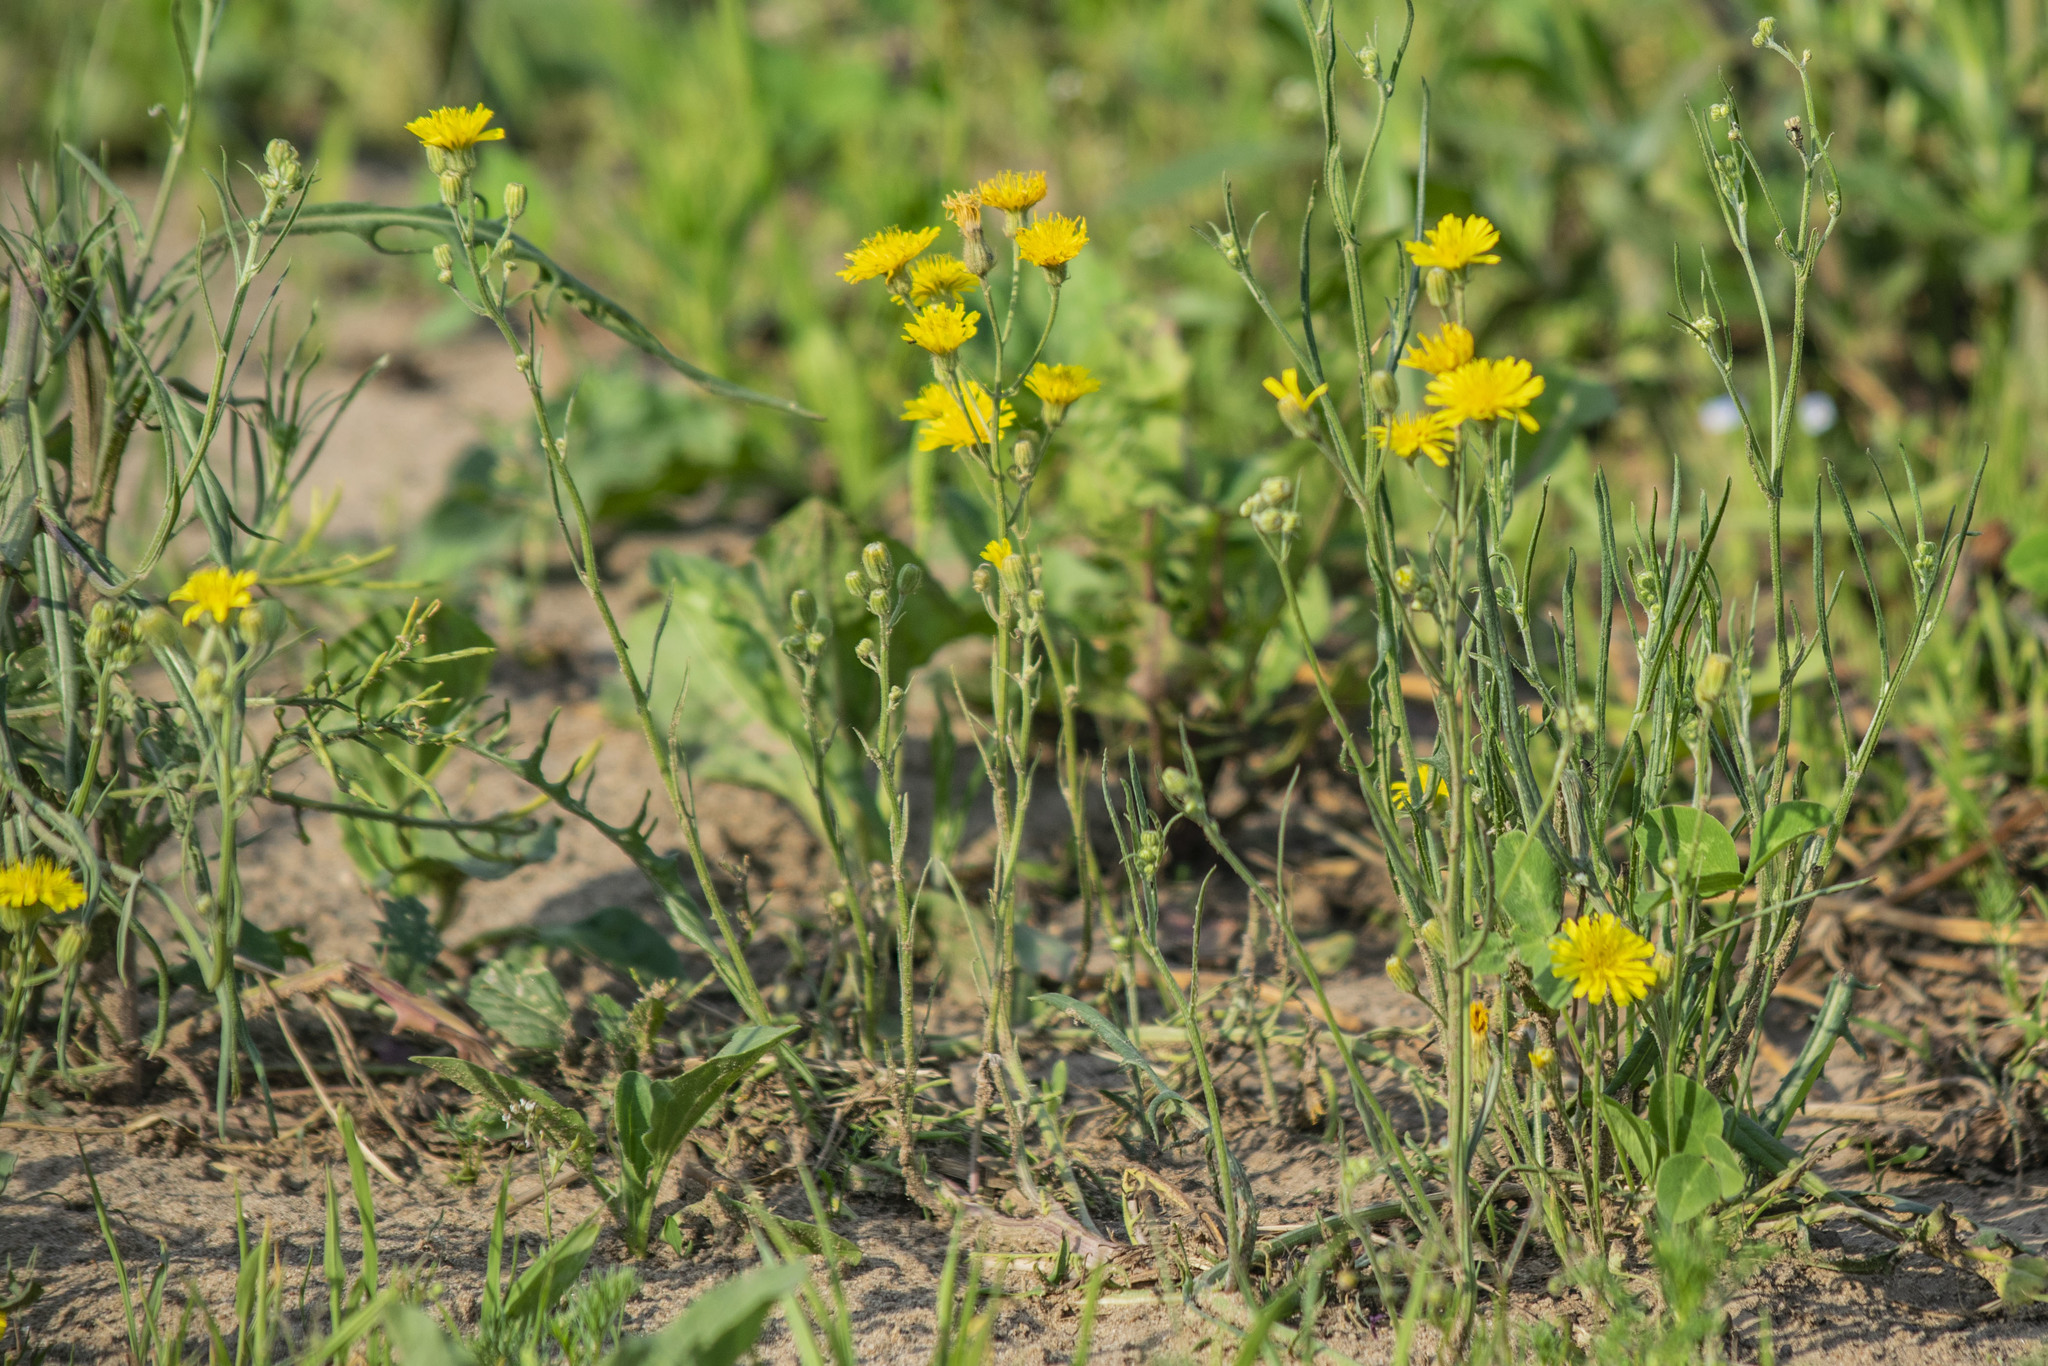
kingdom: Plantae
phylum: Tracheophyta
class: Magnoliopsida
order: Asterales
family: Asteraceae
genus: Crepis
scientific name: Crepis tectorum
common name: Narrow-leaved hawk's-beard
